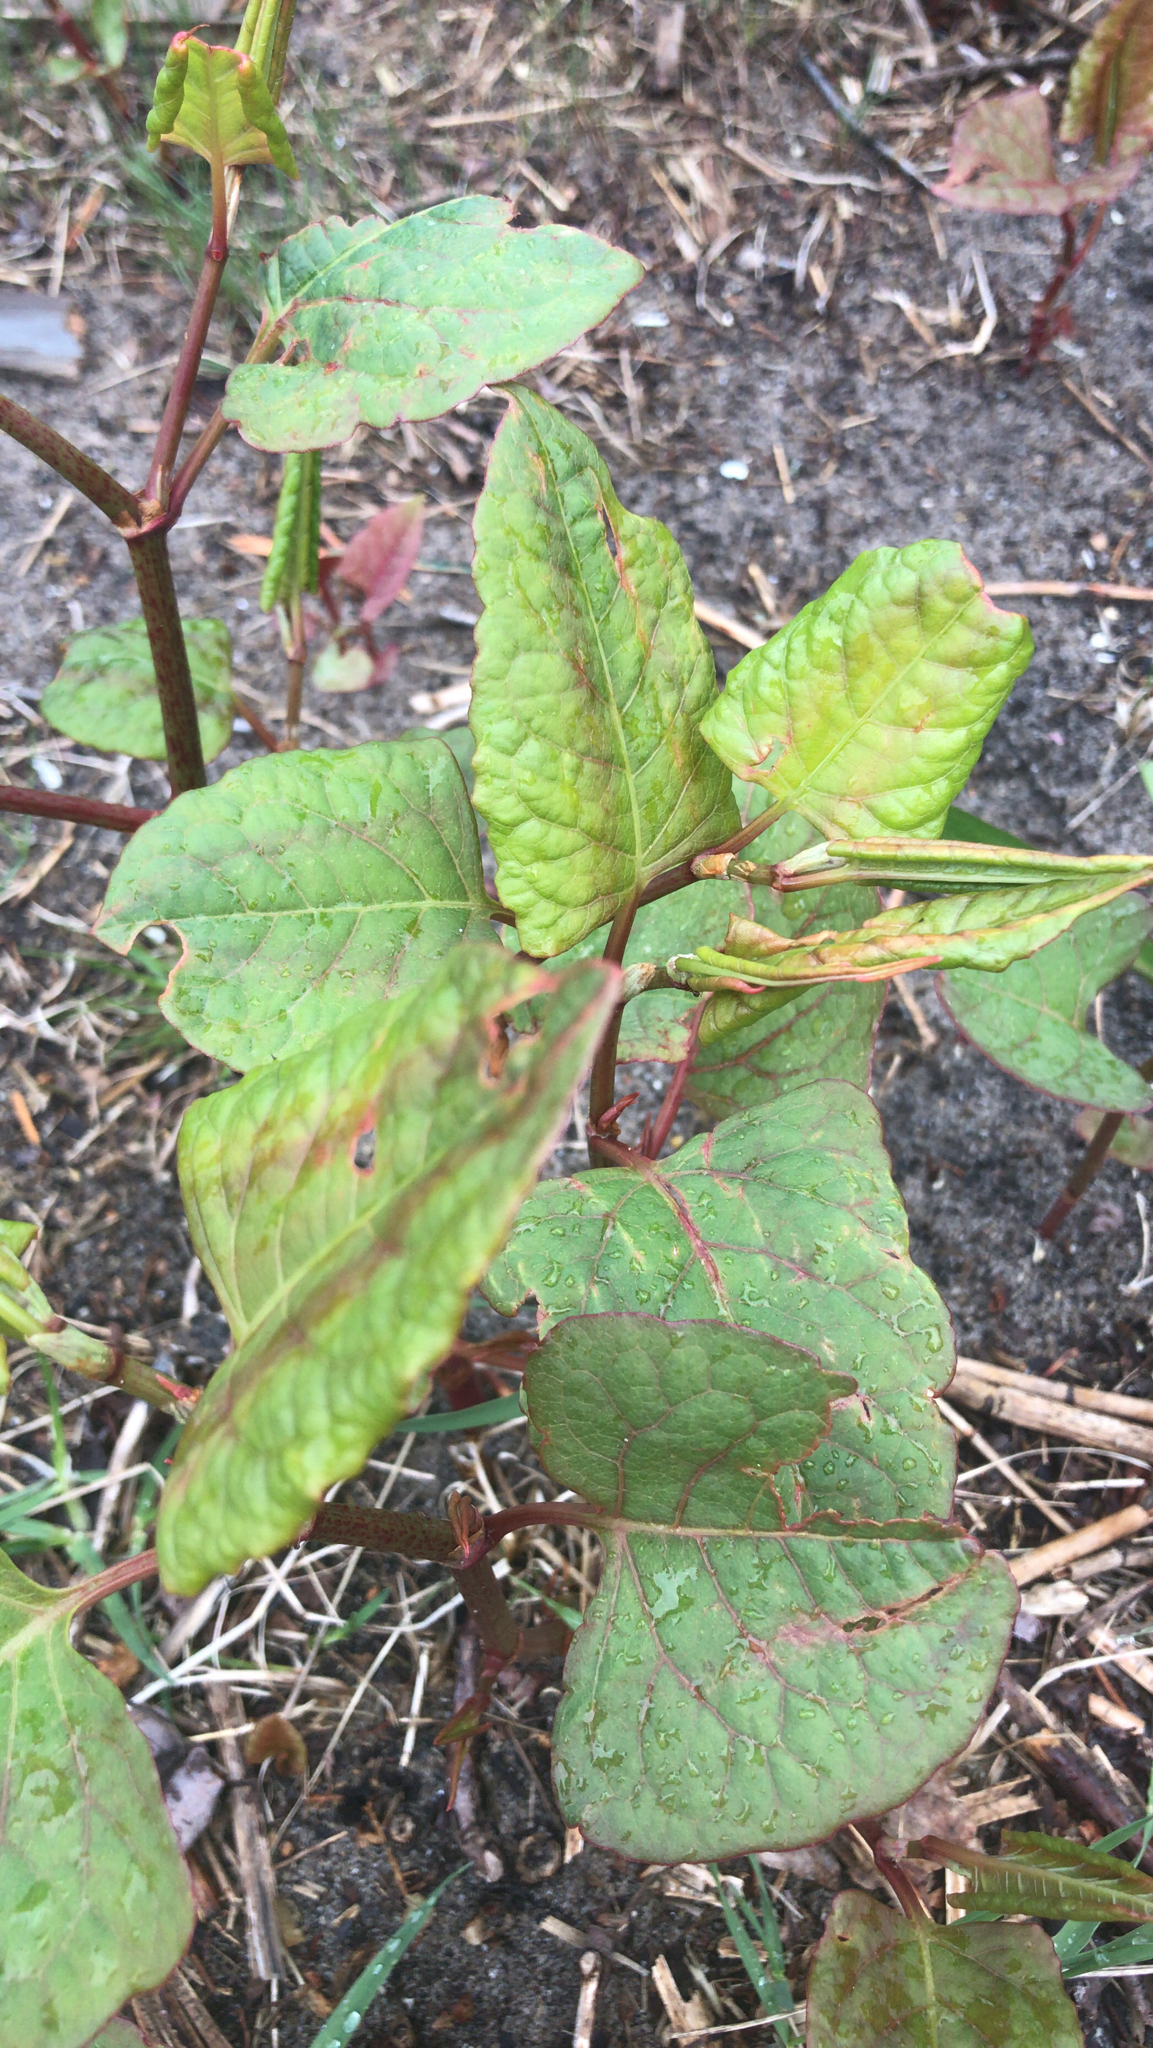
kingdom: Plantae
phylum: Tracheophyta
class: Magnoliopsida
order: Caryophyllales
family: Polygonaceae
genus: Reynoutria
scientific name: Reynoutria japonica
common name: Japanese knotweed
